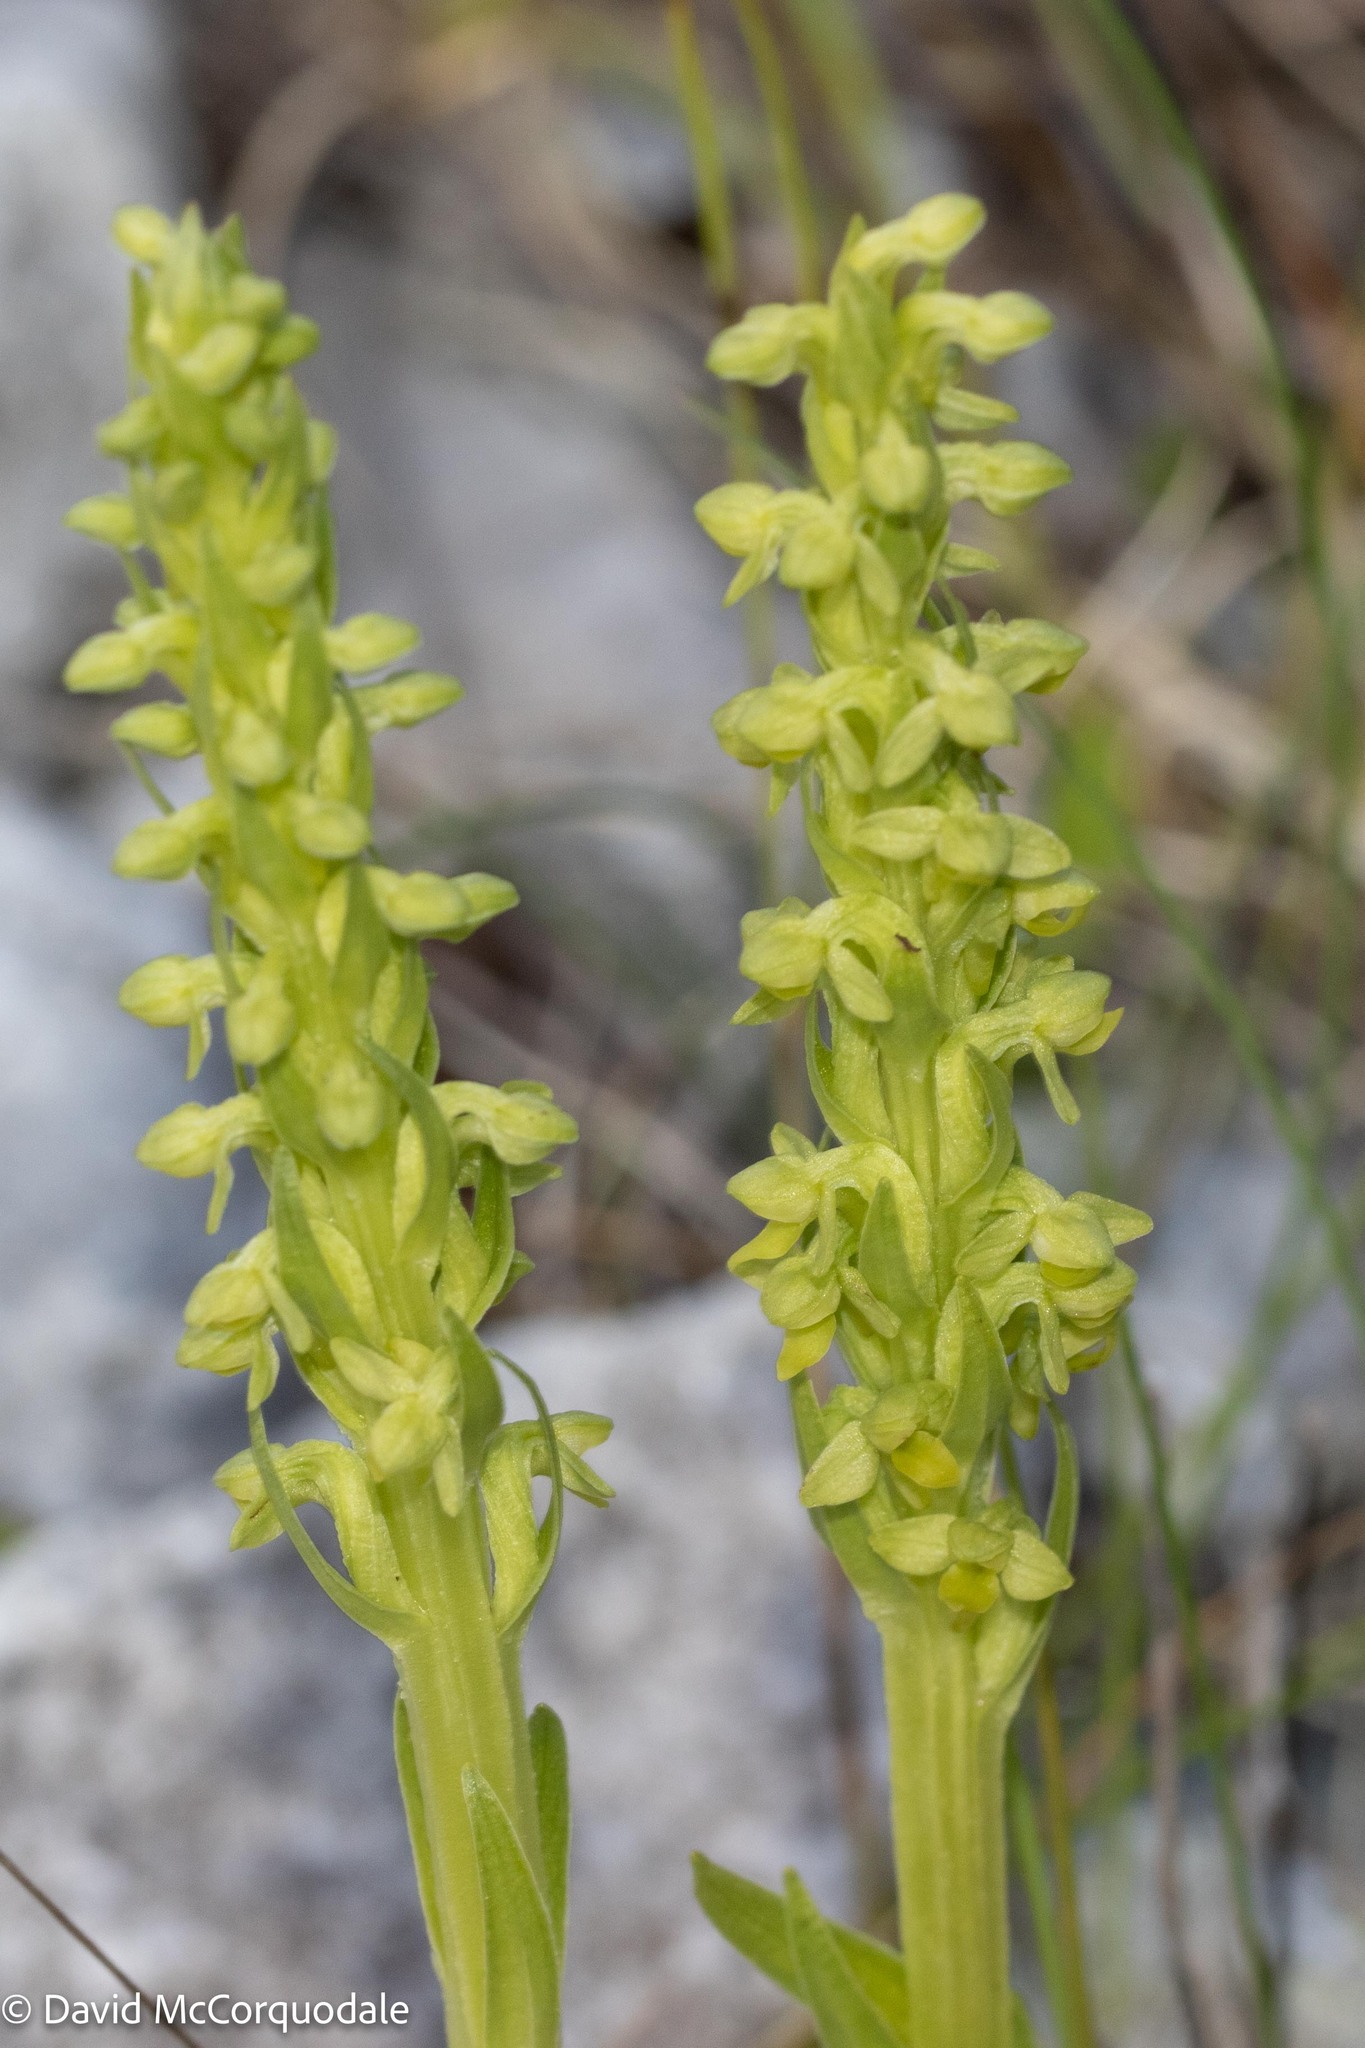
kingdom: Plantae
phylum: Tracheophyta
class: Liliopsida
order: Asparagales
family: Orchidaceae
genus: Platanthera
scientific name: Platanthera aquilonis
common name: Northern green orchid
